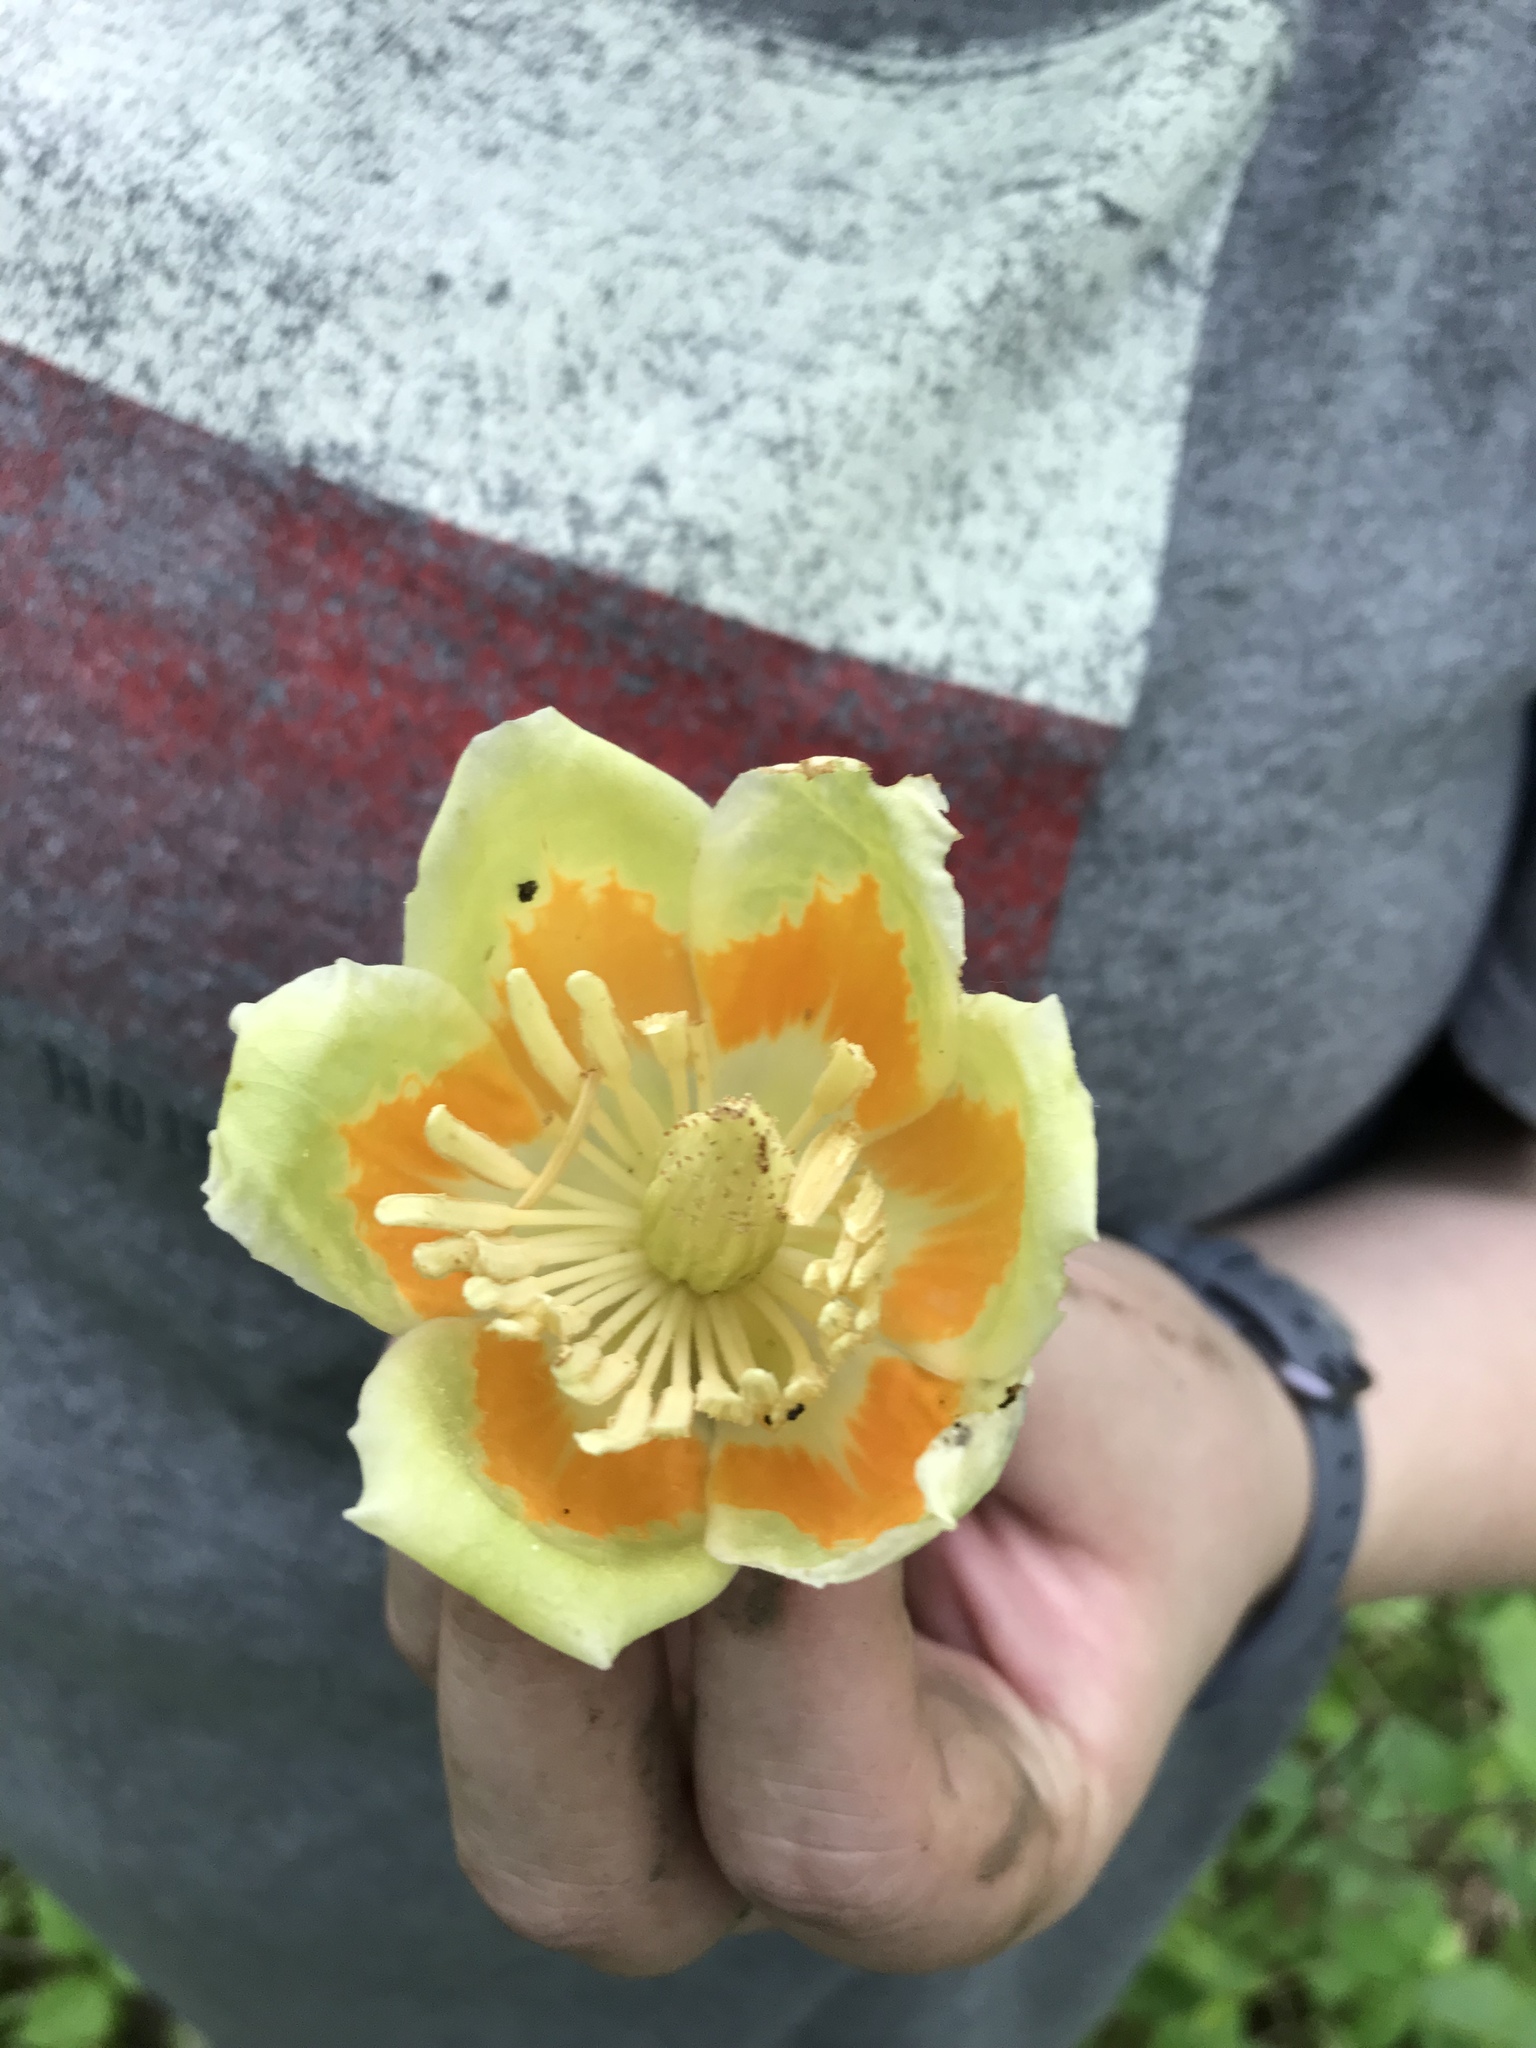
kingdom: Plantae
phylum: Tracheophyta
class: Magnoliopsida
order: Magnoliales
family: Magnoliaceae
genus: Liriodendron
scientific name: Liriodendron tulipifera
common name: Tulip tree
